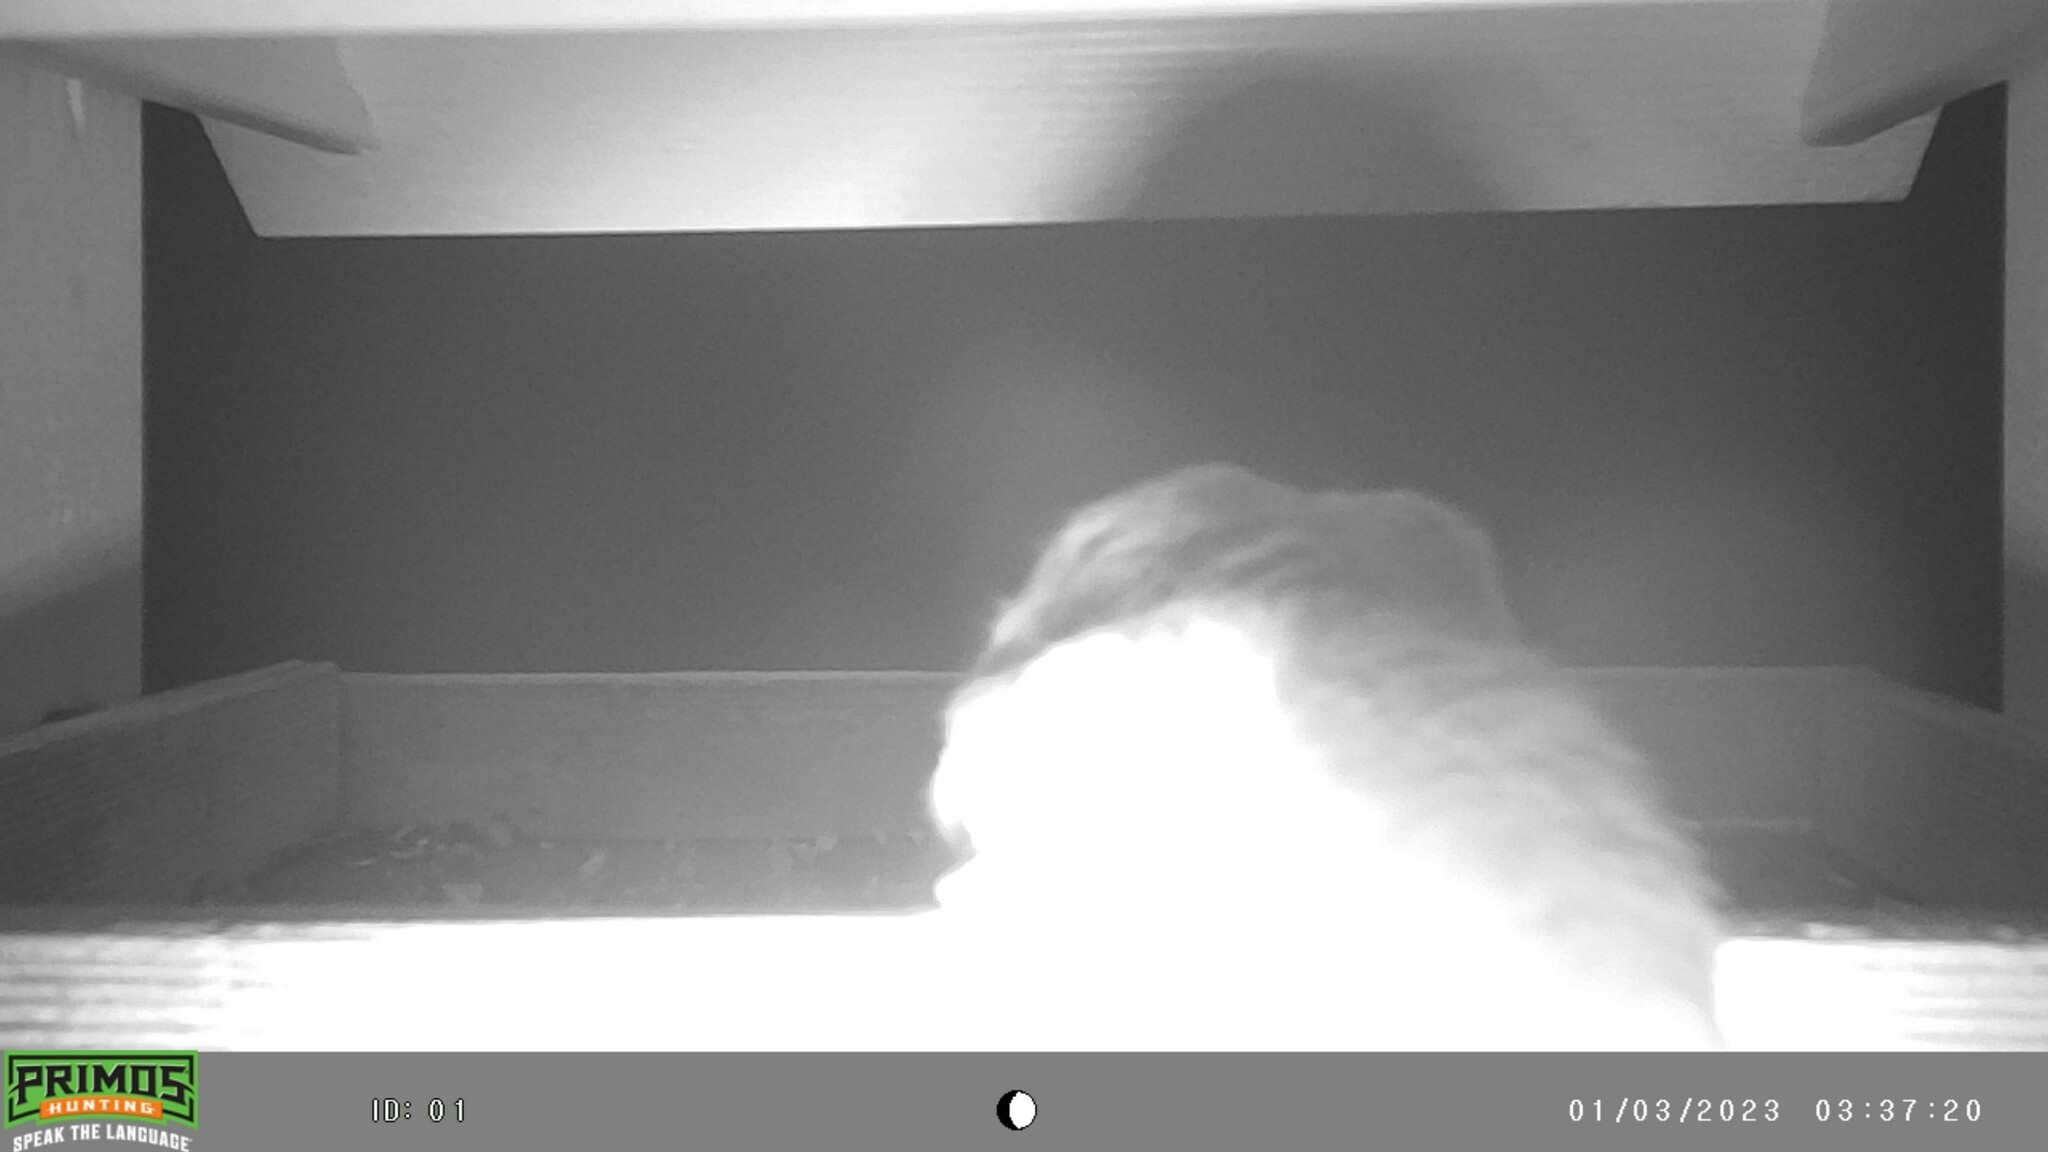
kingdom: Animalia
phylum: Chordata
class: Mammalia
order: Rodentia
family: Sciuridae
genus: Glaucomys
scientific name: Glaucomys sabrinus
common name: Northern flying squirrel
